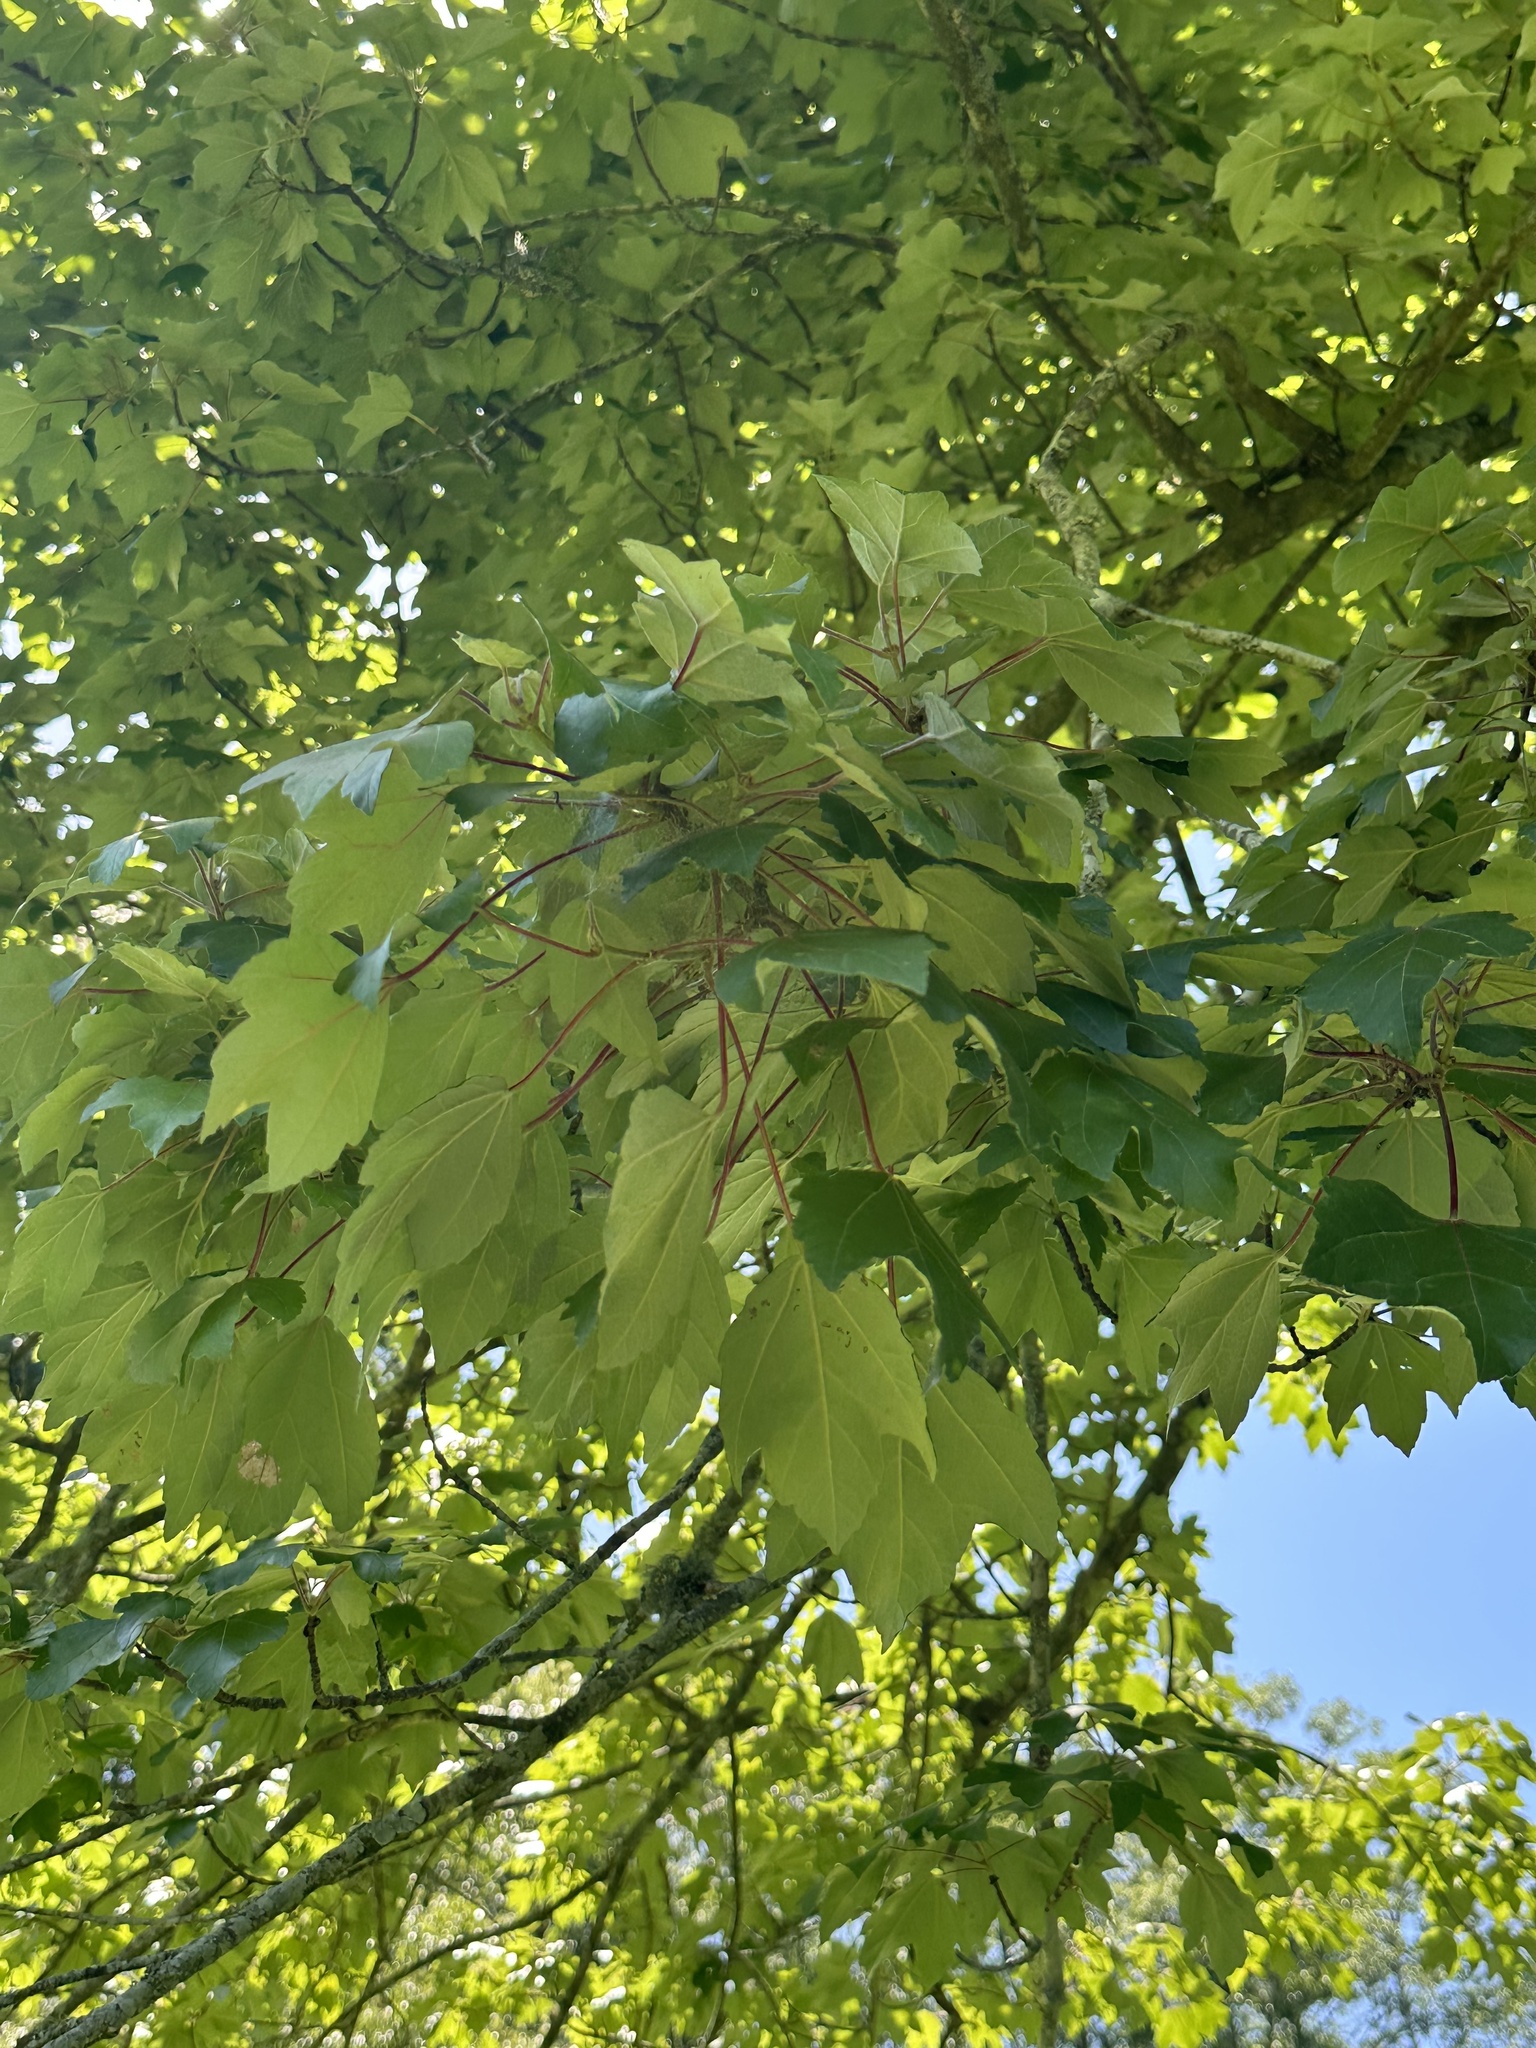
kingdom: Plantae
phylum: Tracheophyta
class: Magnoliopsida
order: Sapindales
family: Sapindaceae
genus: Acer
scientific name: Acer rubrum
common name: Red maple
